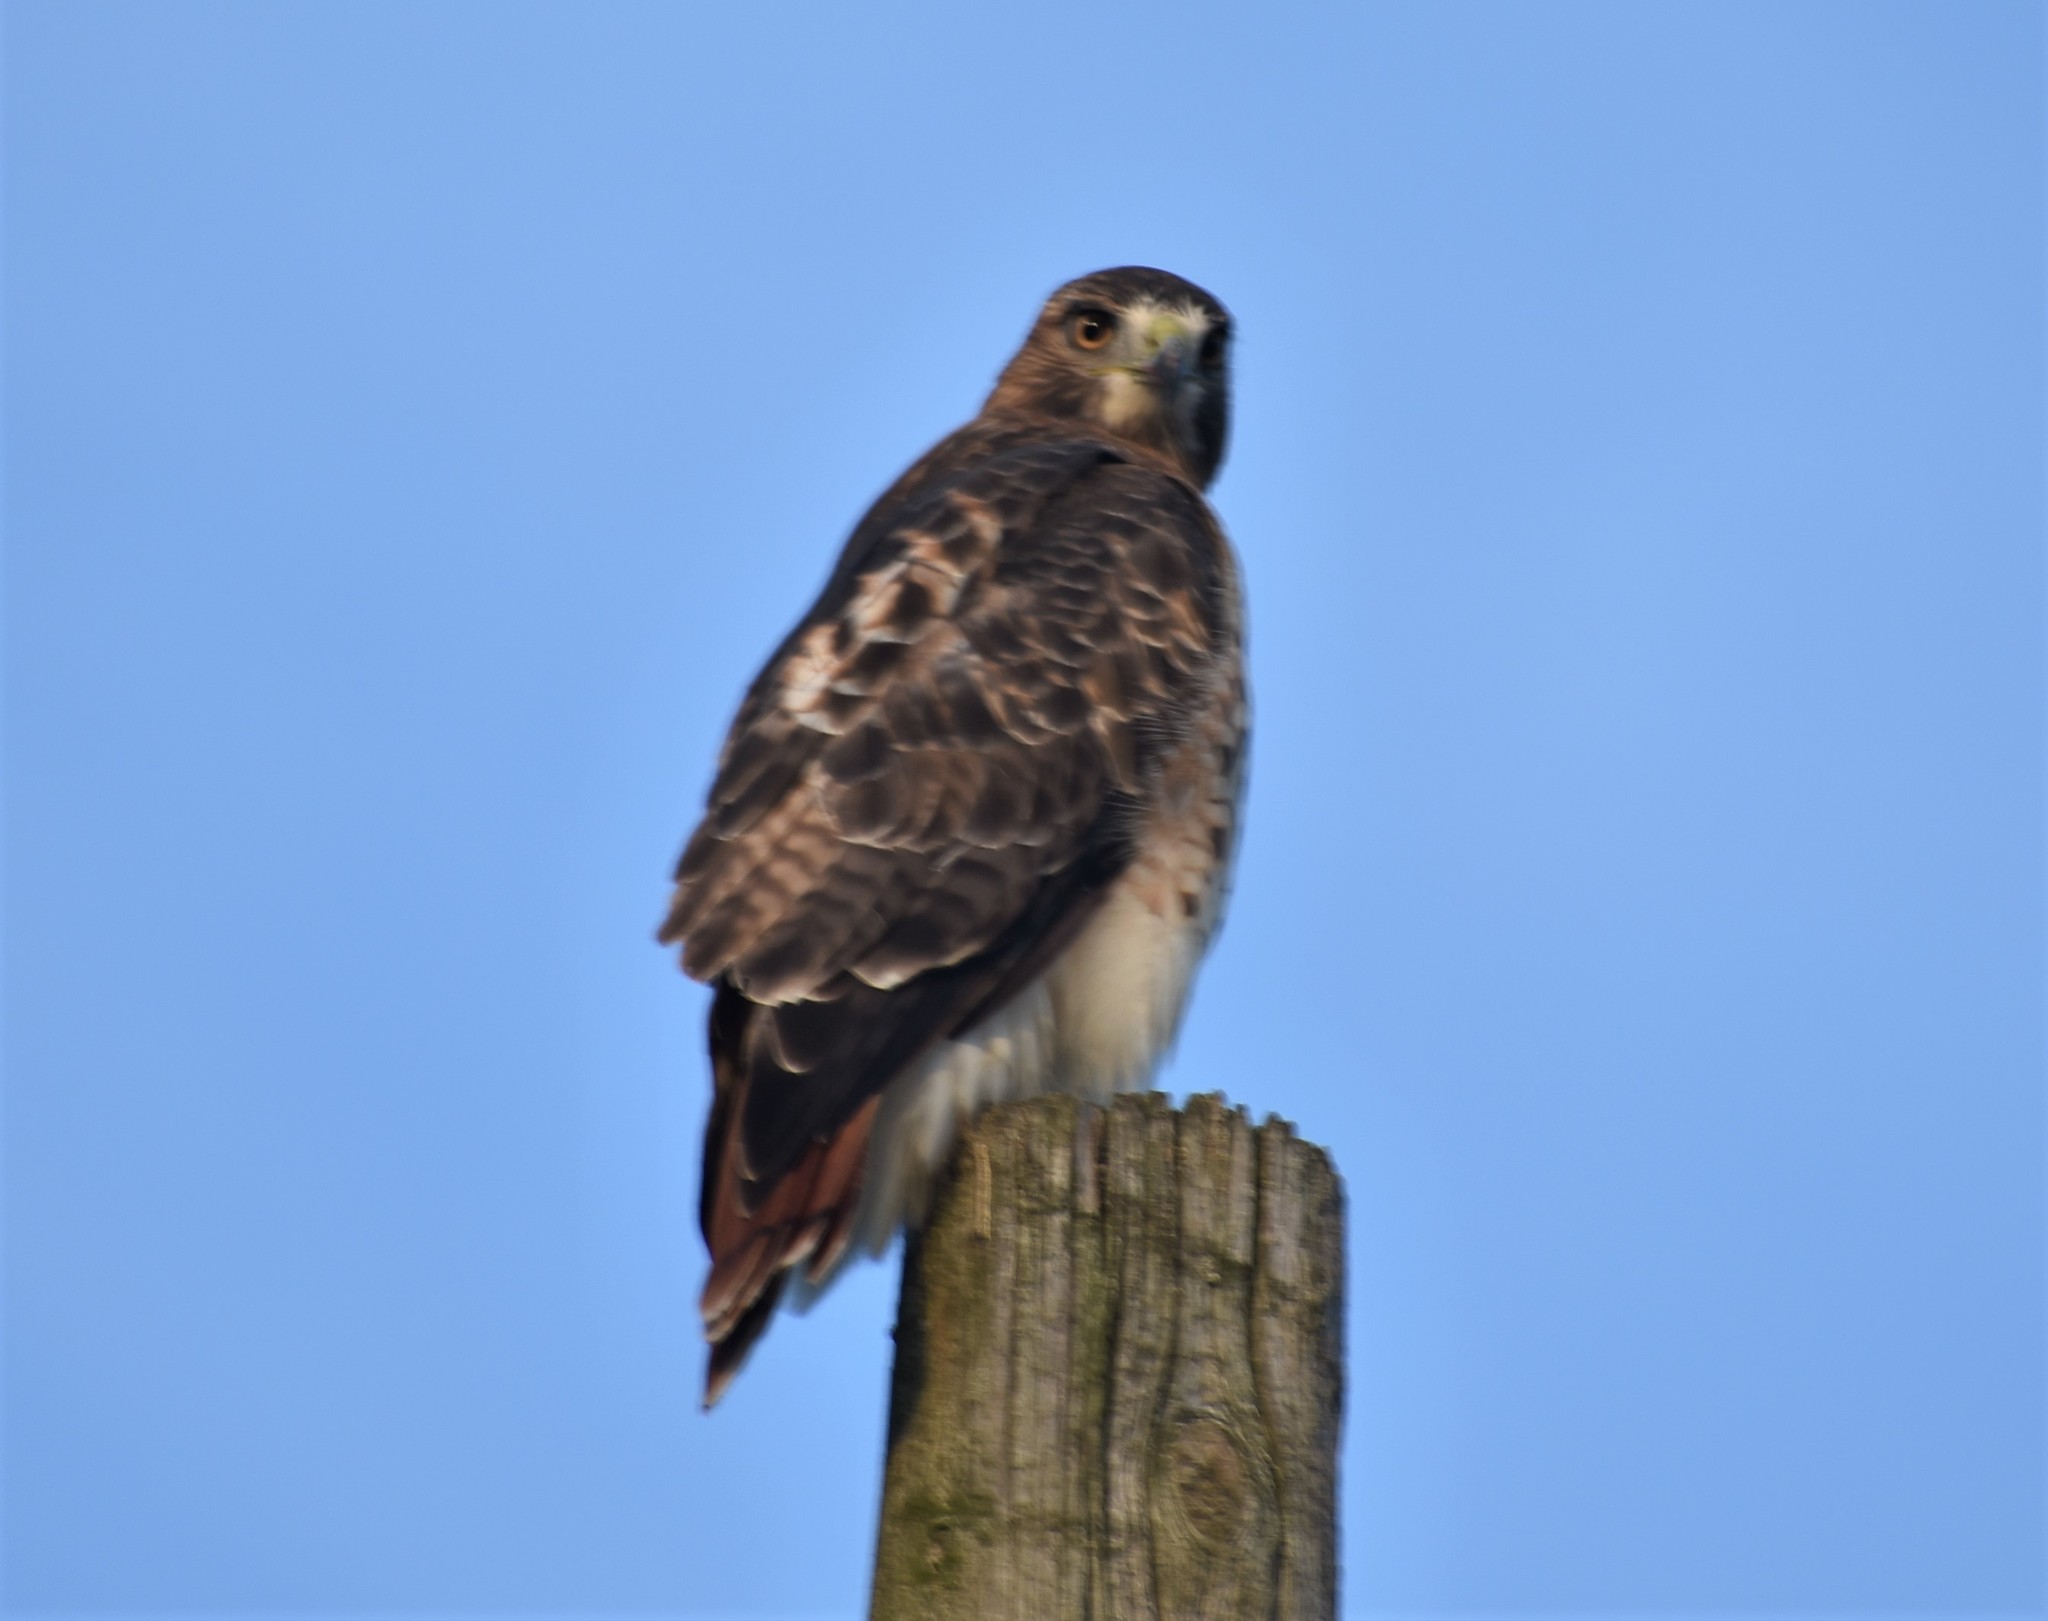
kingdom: Animalia
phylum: Chordata
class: Aves
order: Accipitriformes
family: Accipitridae
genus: Buteo
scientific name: Buteo jamaicensis
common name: Red-tailed hawk
